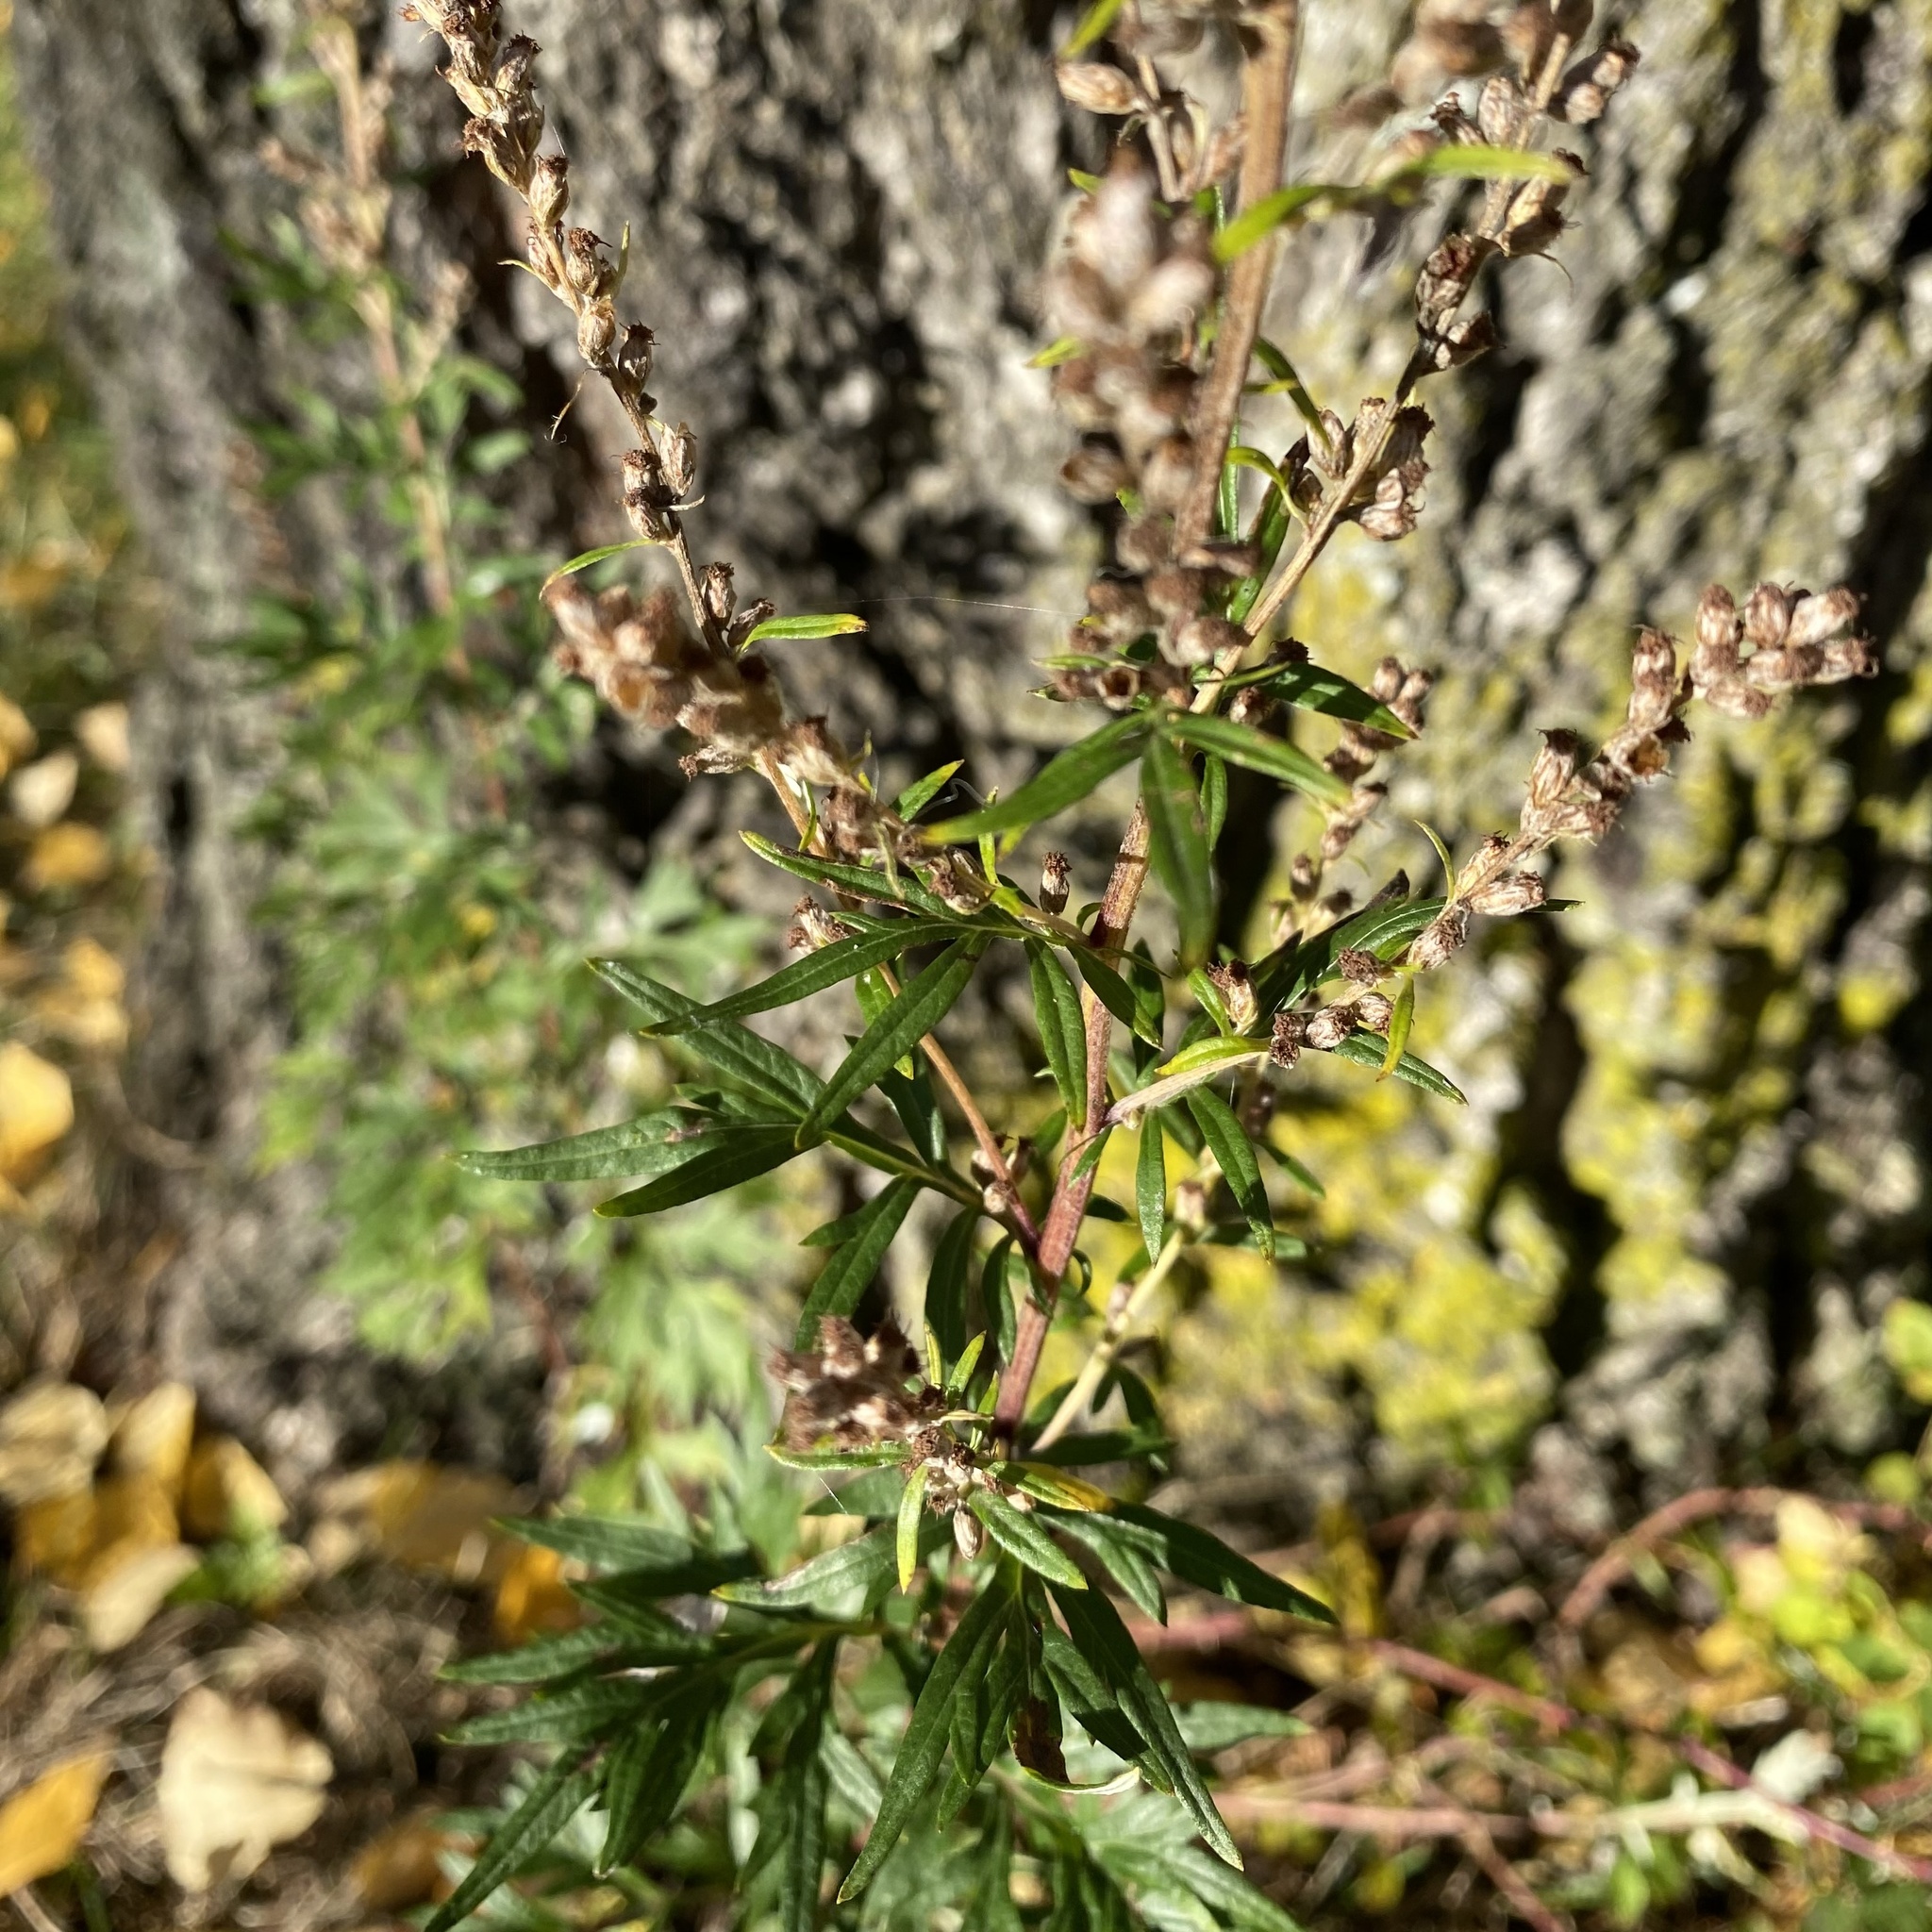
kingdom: Plantae
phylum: Tracheophyta
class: Magnoliopsida
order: Asterales
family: Asteraceae
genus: Artemisia
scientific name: Artemisia vulgaris
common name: Mugwort
